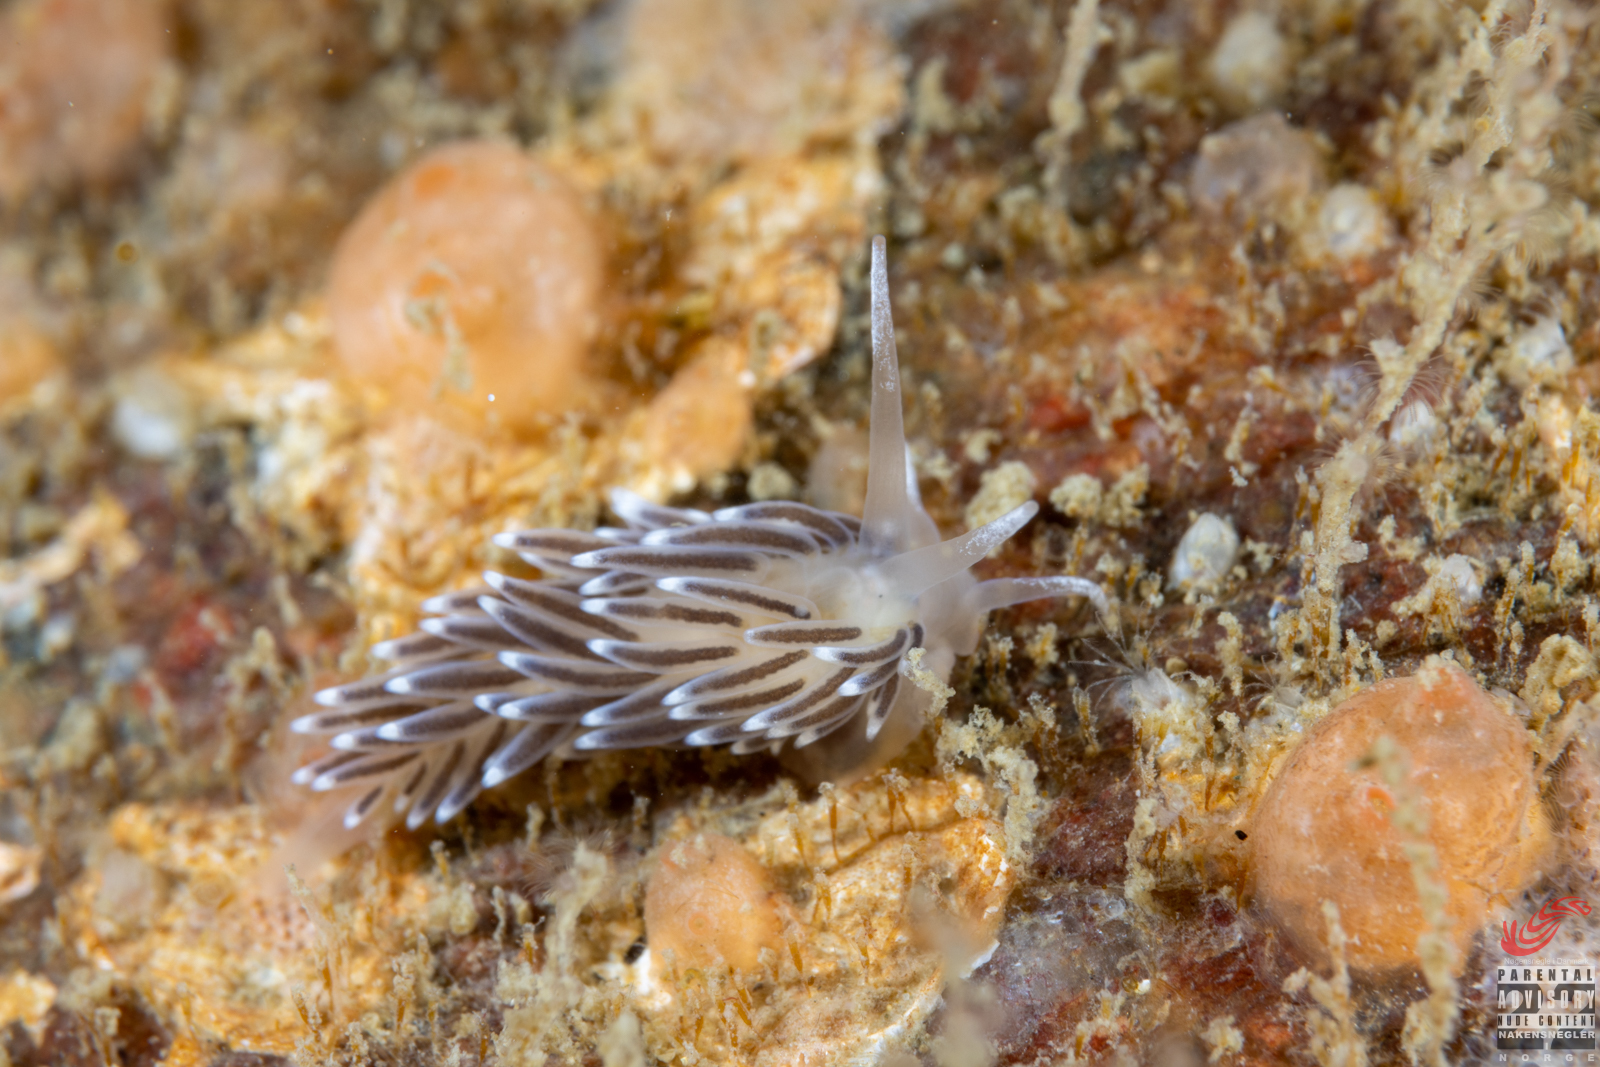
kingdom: Animalia
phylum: Mollusca
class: Gastropoda
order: Nudibranchia
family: Cuthonellidae
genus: Cuthonella
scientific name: Cuthonella concinna
